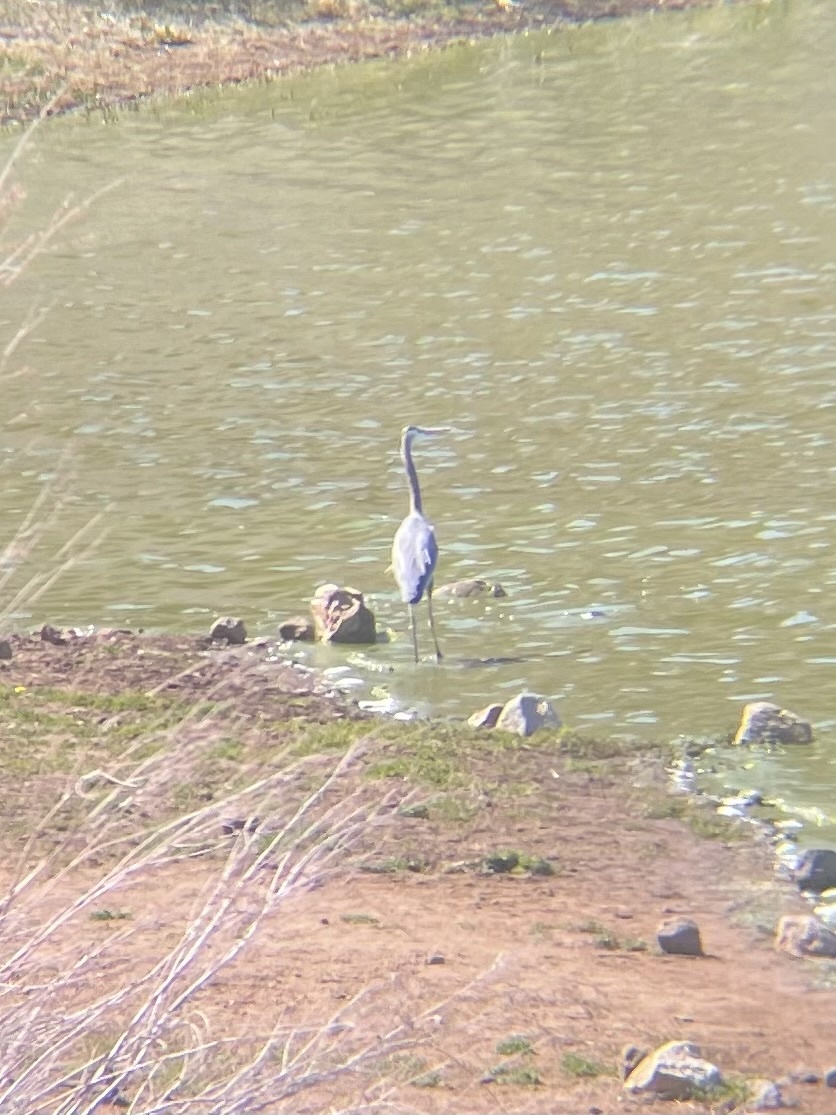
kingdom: Animalia
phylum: Chordata
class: Aves
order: Pelecaniformes
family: Ardeidae
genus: Ardea
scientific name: Ardea herodias
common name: Great blue heron
